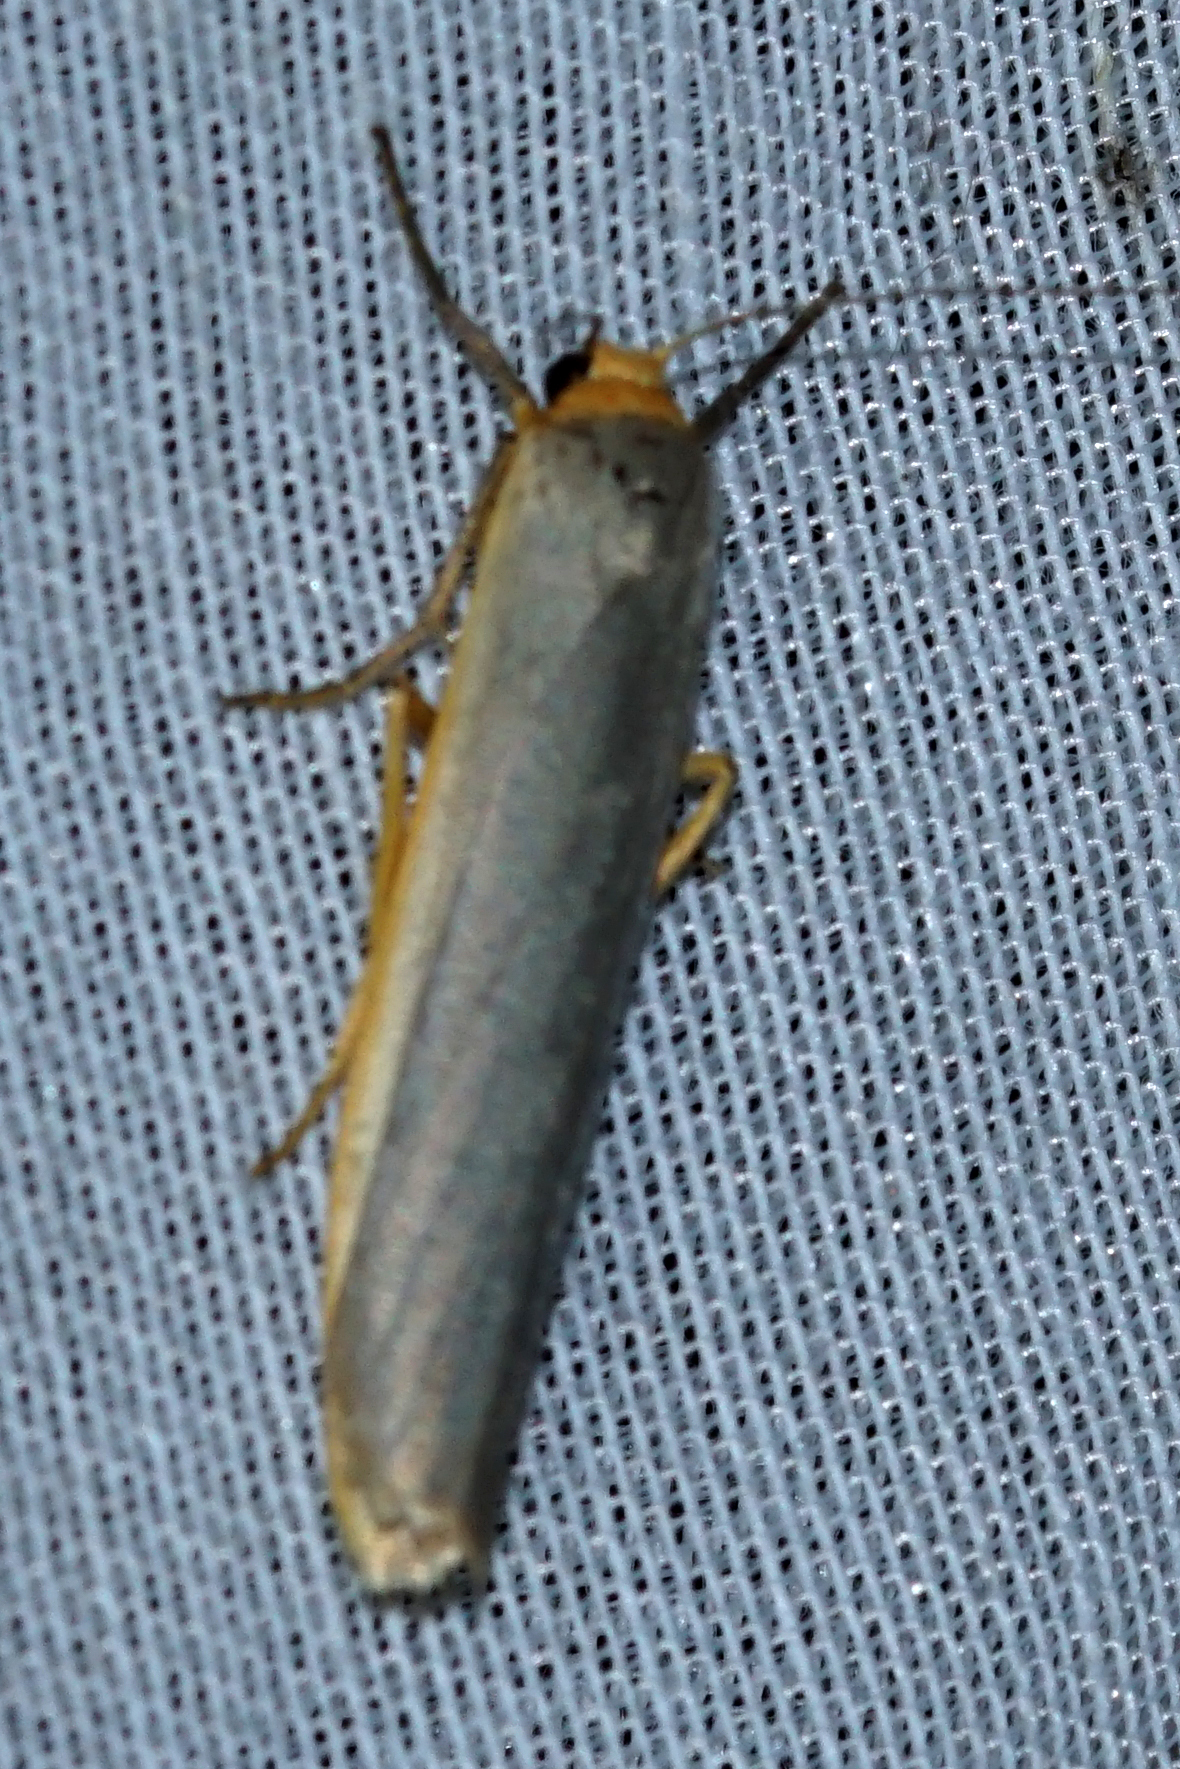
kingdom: Animalia
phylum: Arthropoda
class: Insecta
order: Lepidoptera
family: Erebidae
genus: Manulea
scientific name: Manulea complana
